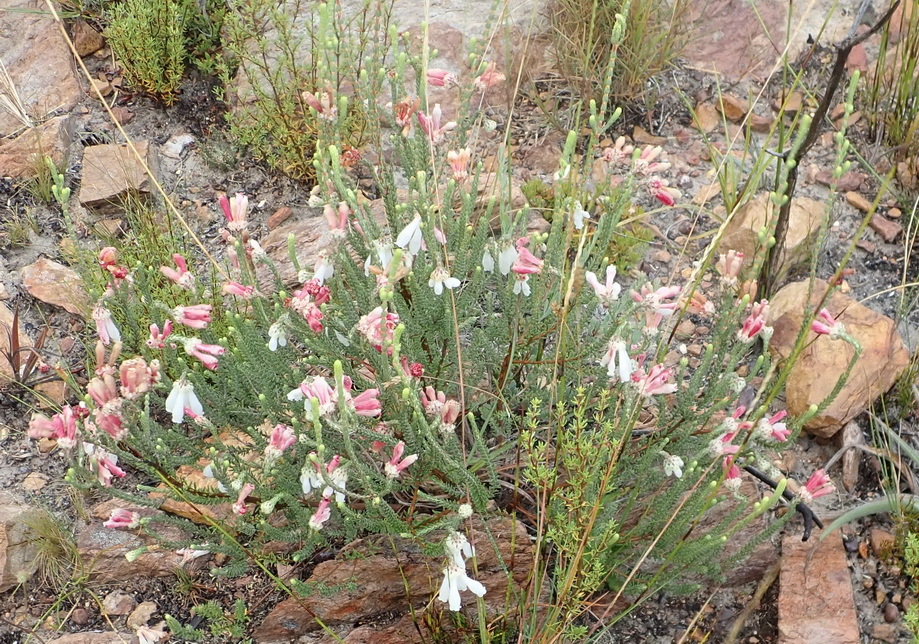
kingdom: Plantae
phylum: Tracheophyta
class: Magnoliopsida
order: Ericales
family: Ericaceae
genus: Erica
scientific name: Erica pectinifolia
